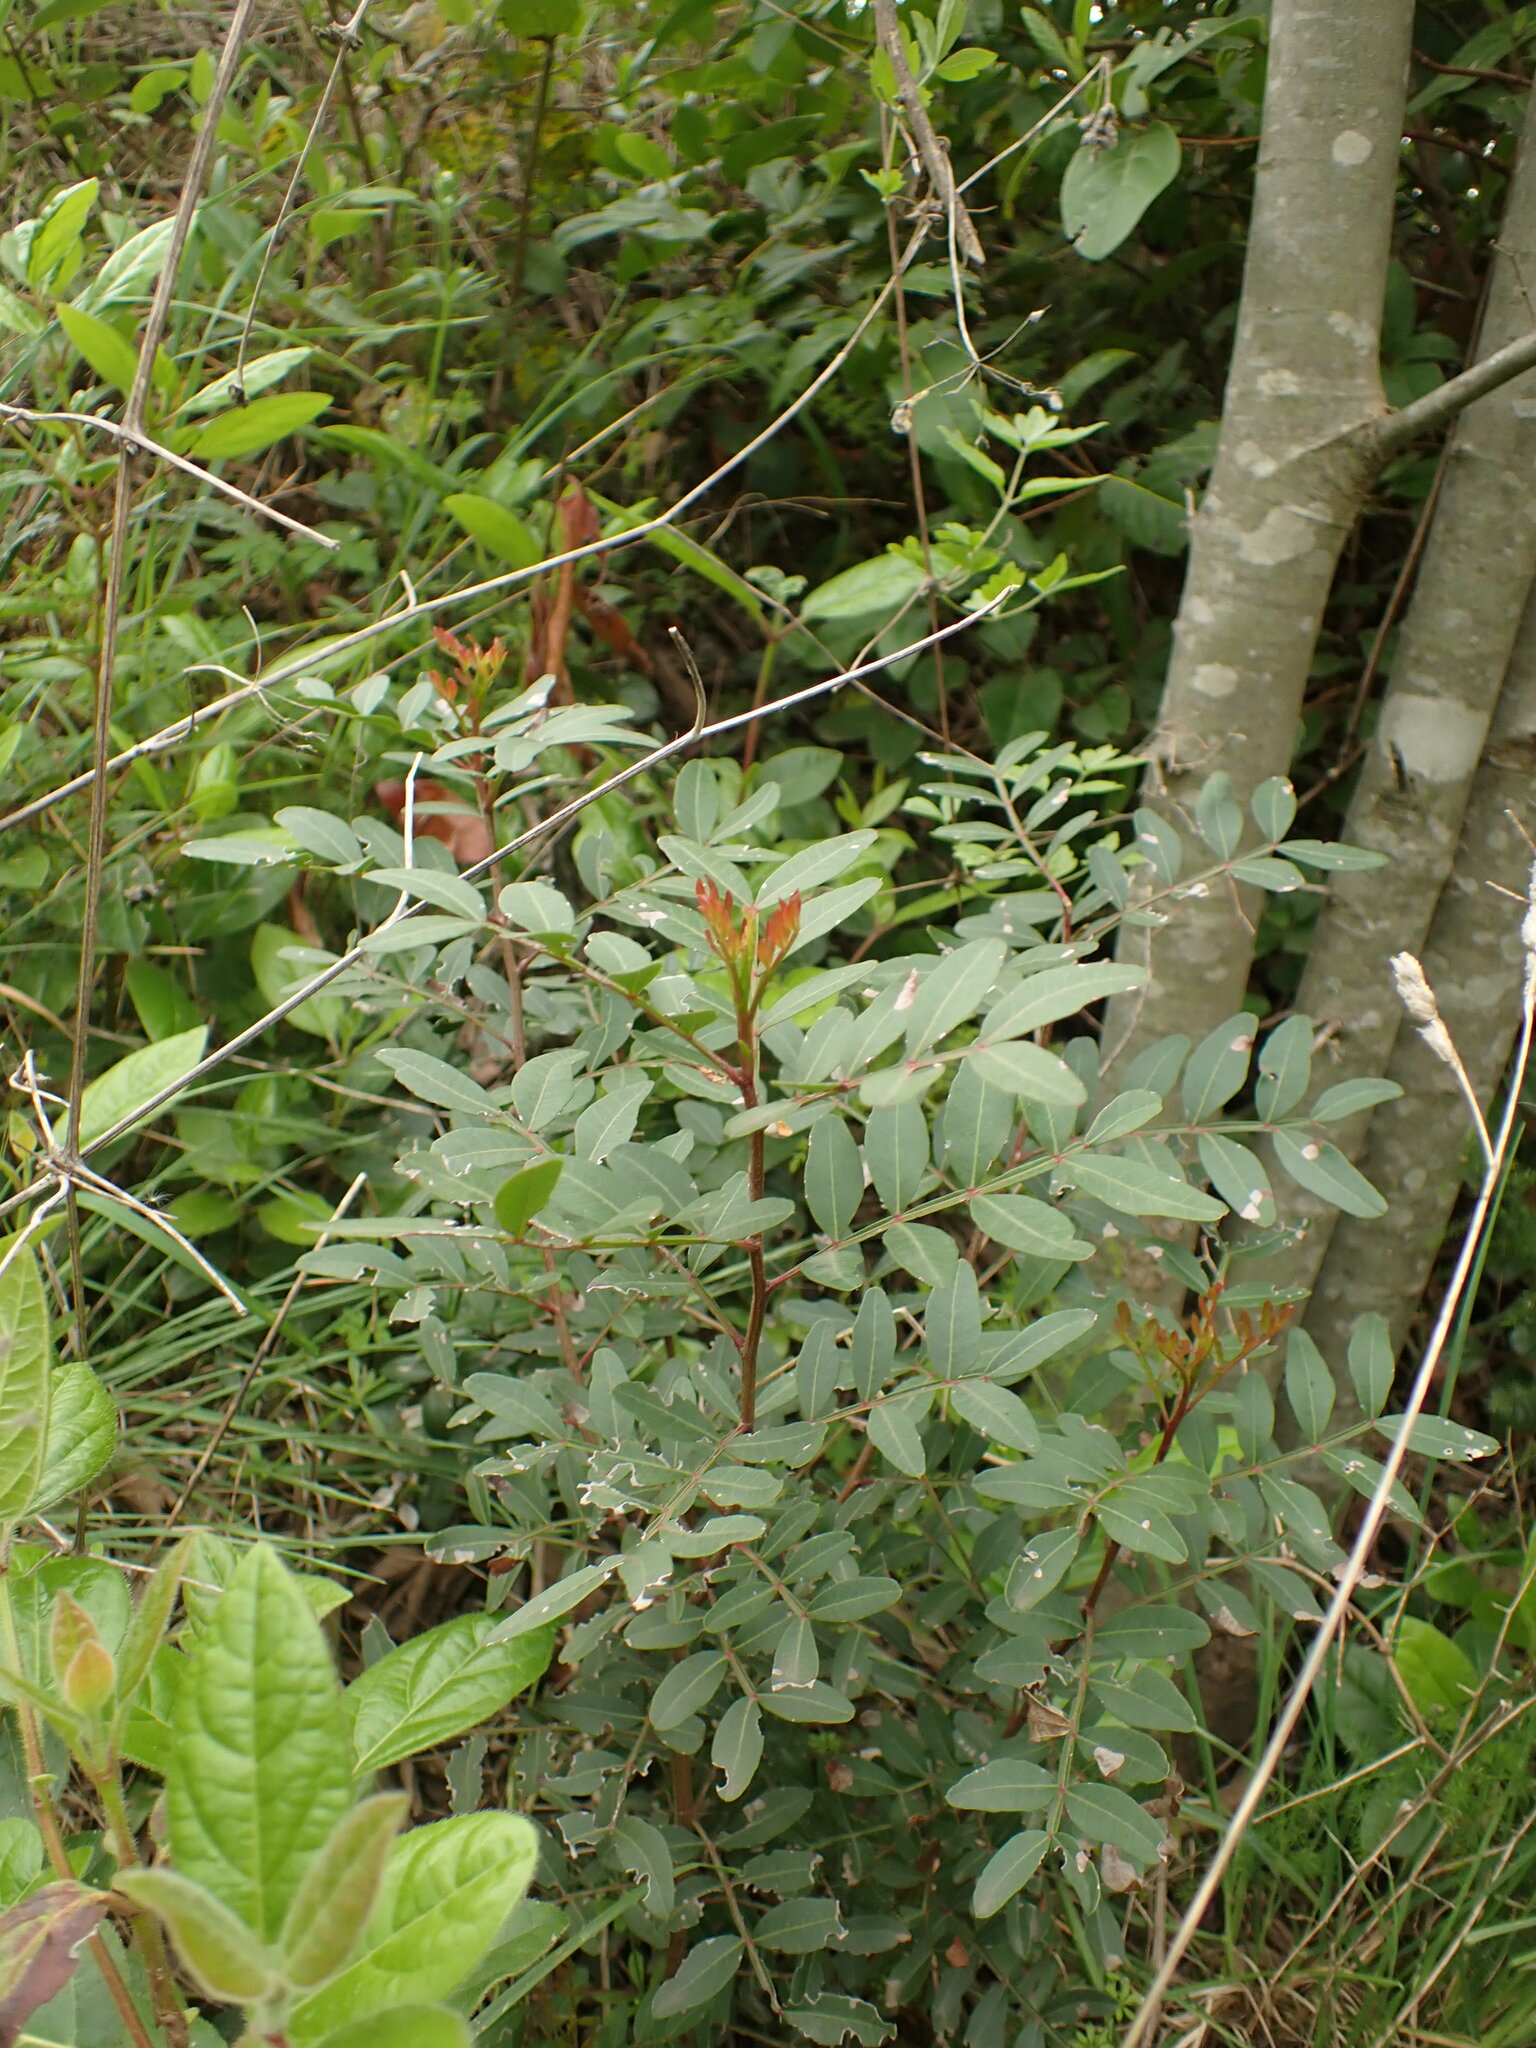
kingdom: Plantae
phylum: Tracheophyta
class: Magnoliopsida
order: Sapindales
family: Anacardiaceae
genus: Pistacia
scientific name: Pistacia lentiscus
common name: Lentisk
